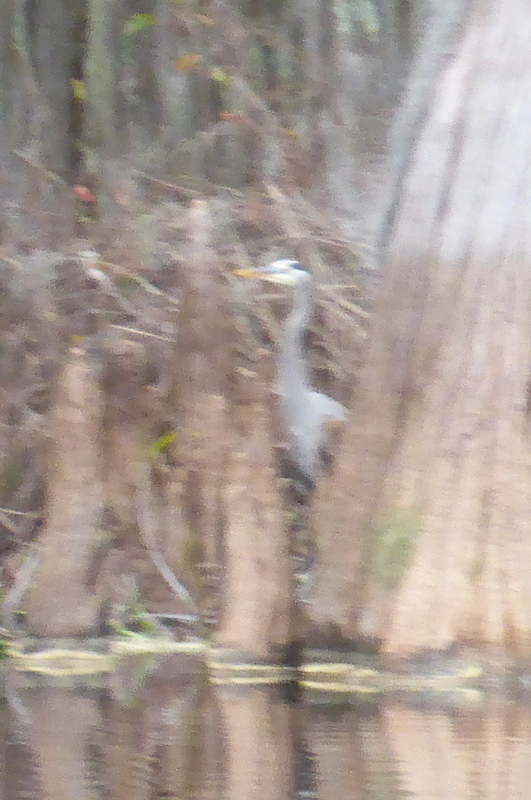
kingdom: Animalia
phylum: Chordata
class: Aves
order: Pelecaniformes
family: Ardeidae
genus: Ardea
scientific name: Ardea herodias
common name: Great blue heron
